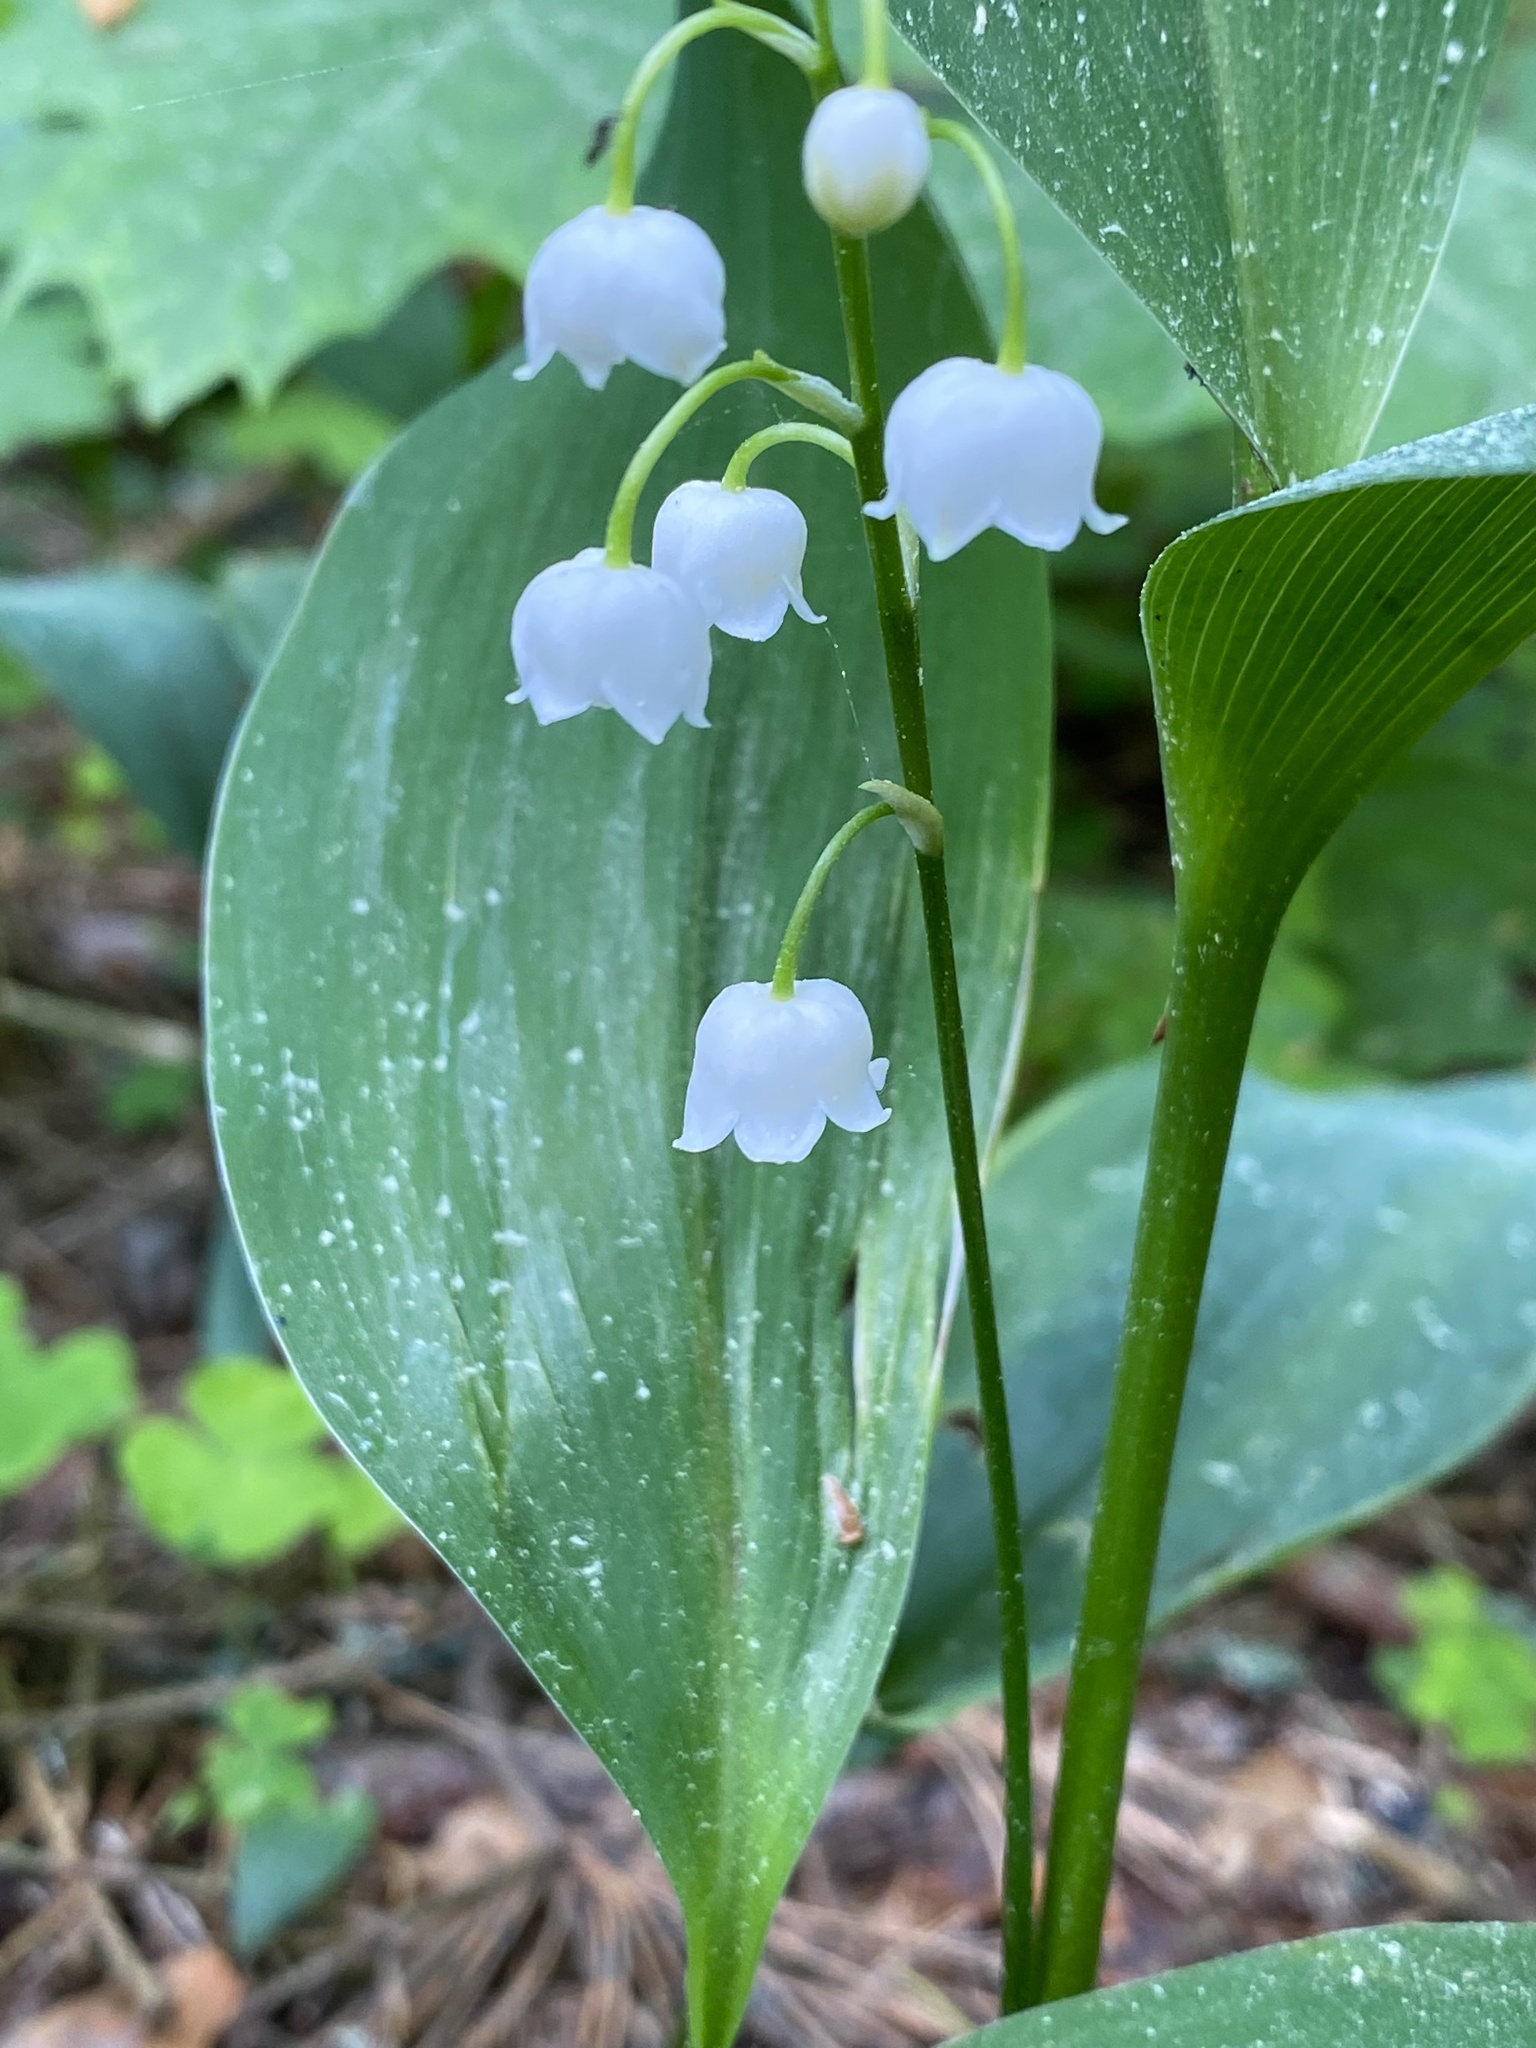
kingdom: Plantae
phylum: Tracheophyta
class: Liliopsida
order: Asparagales
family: Asparagaceae
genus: Convallaria
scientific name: Convallaria majalis
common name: Lily-of-the-valley
